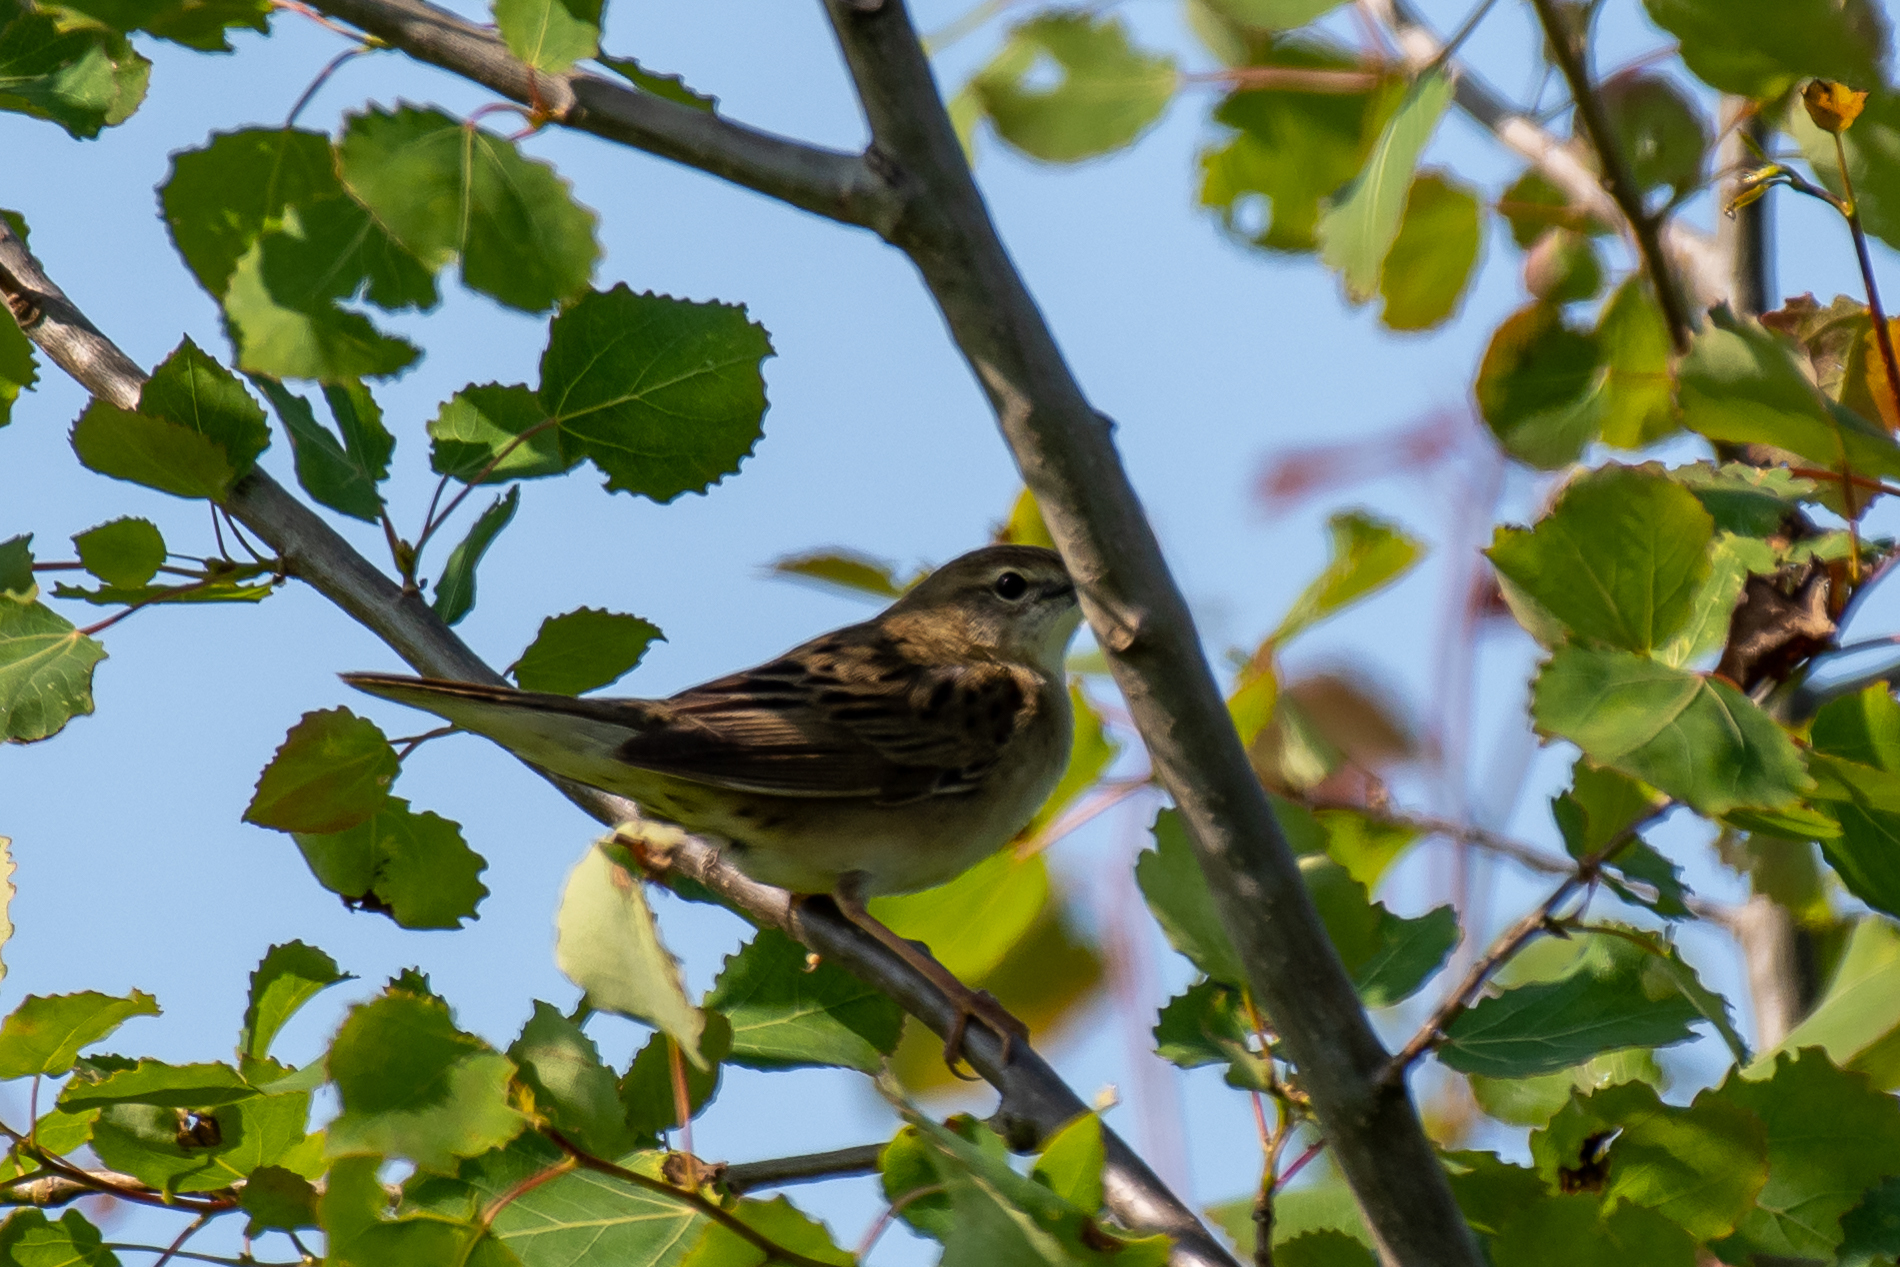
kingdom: Animalia
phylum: Chordata
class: Aves
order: Passeriformes
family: Locustellidae
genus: Locustella
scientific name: Locustella naevia
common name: Common grasshopper warbler
